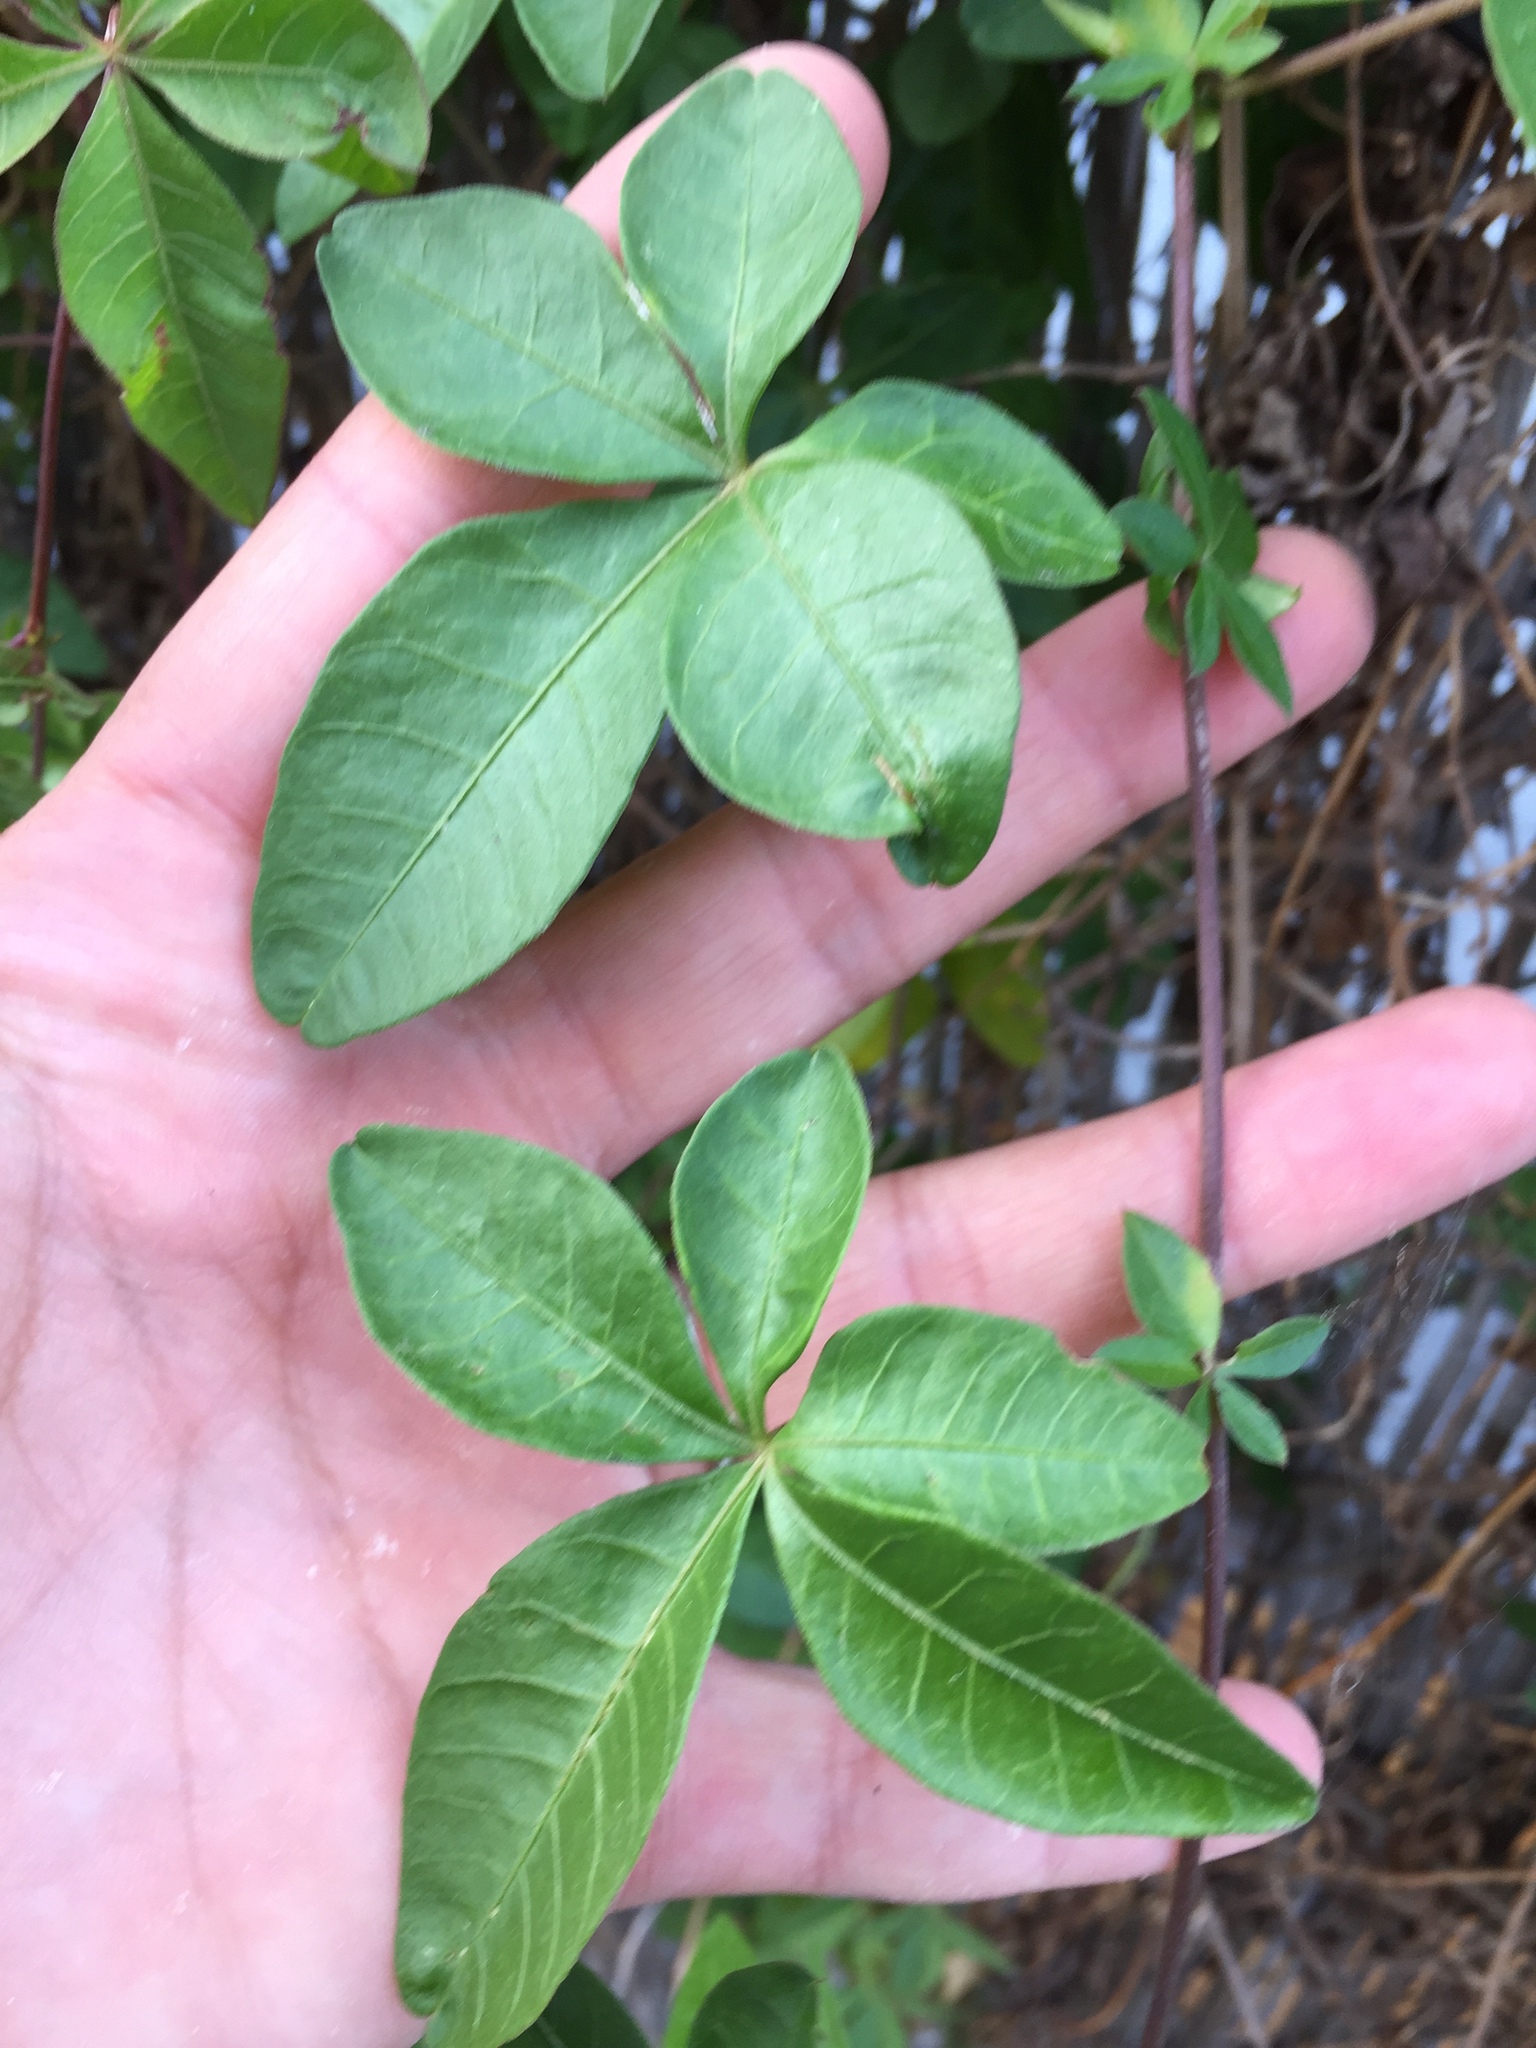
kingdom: Plantae
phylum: Tracheophyta
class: Magnoliopsida
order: Solanales
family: Convolvulaceae
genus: Ipomoea
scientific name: Ipomoea cairica
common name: Mile a minute vine
